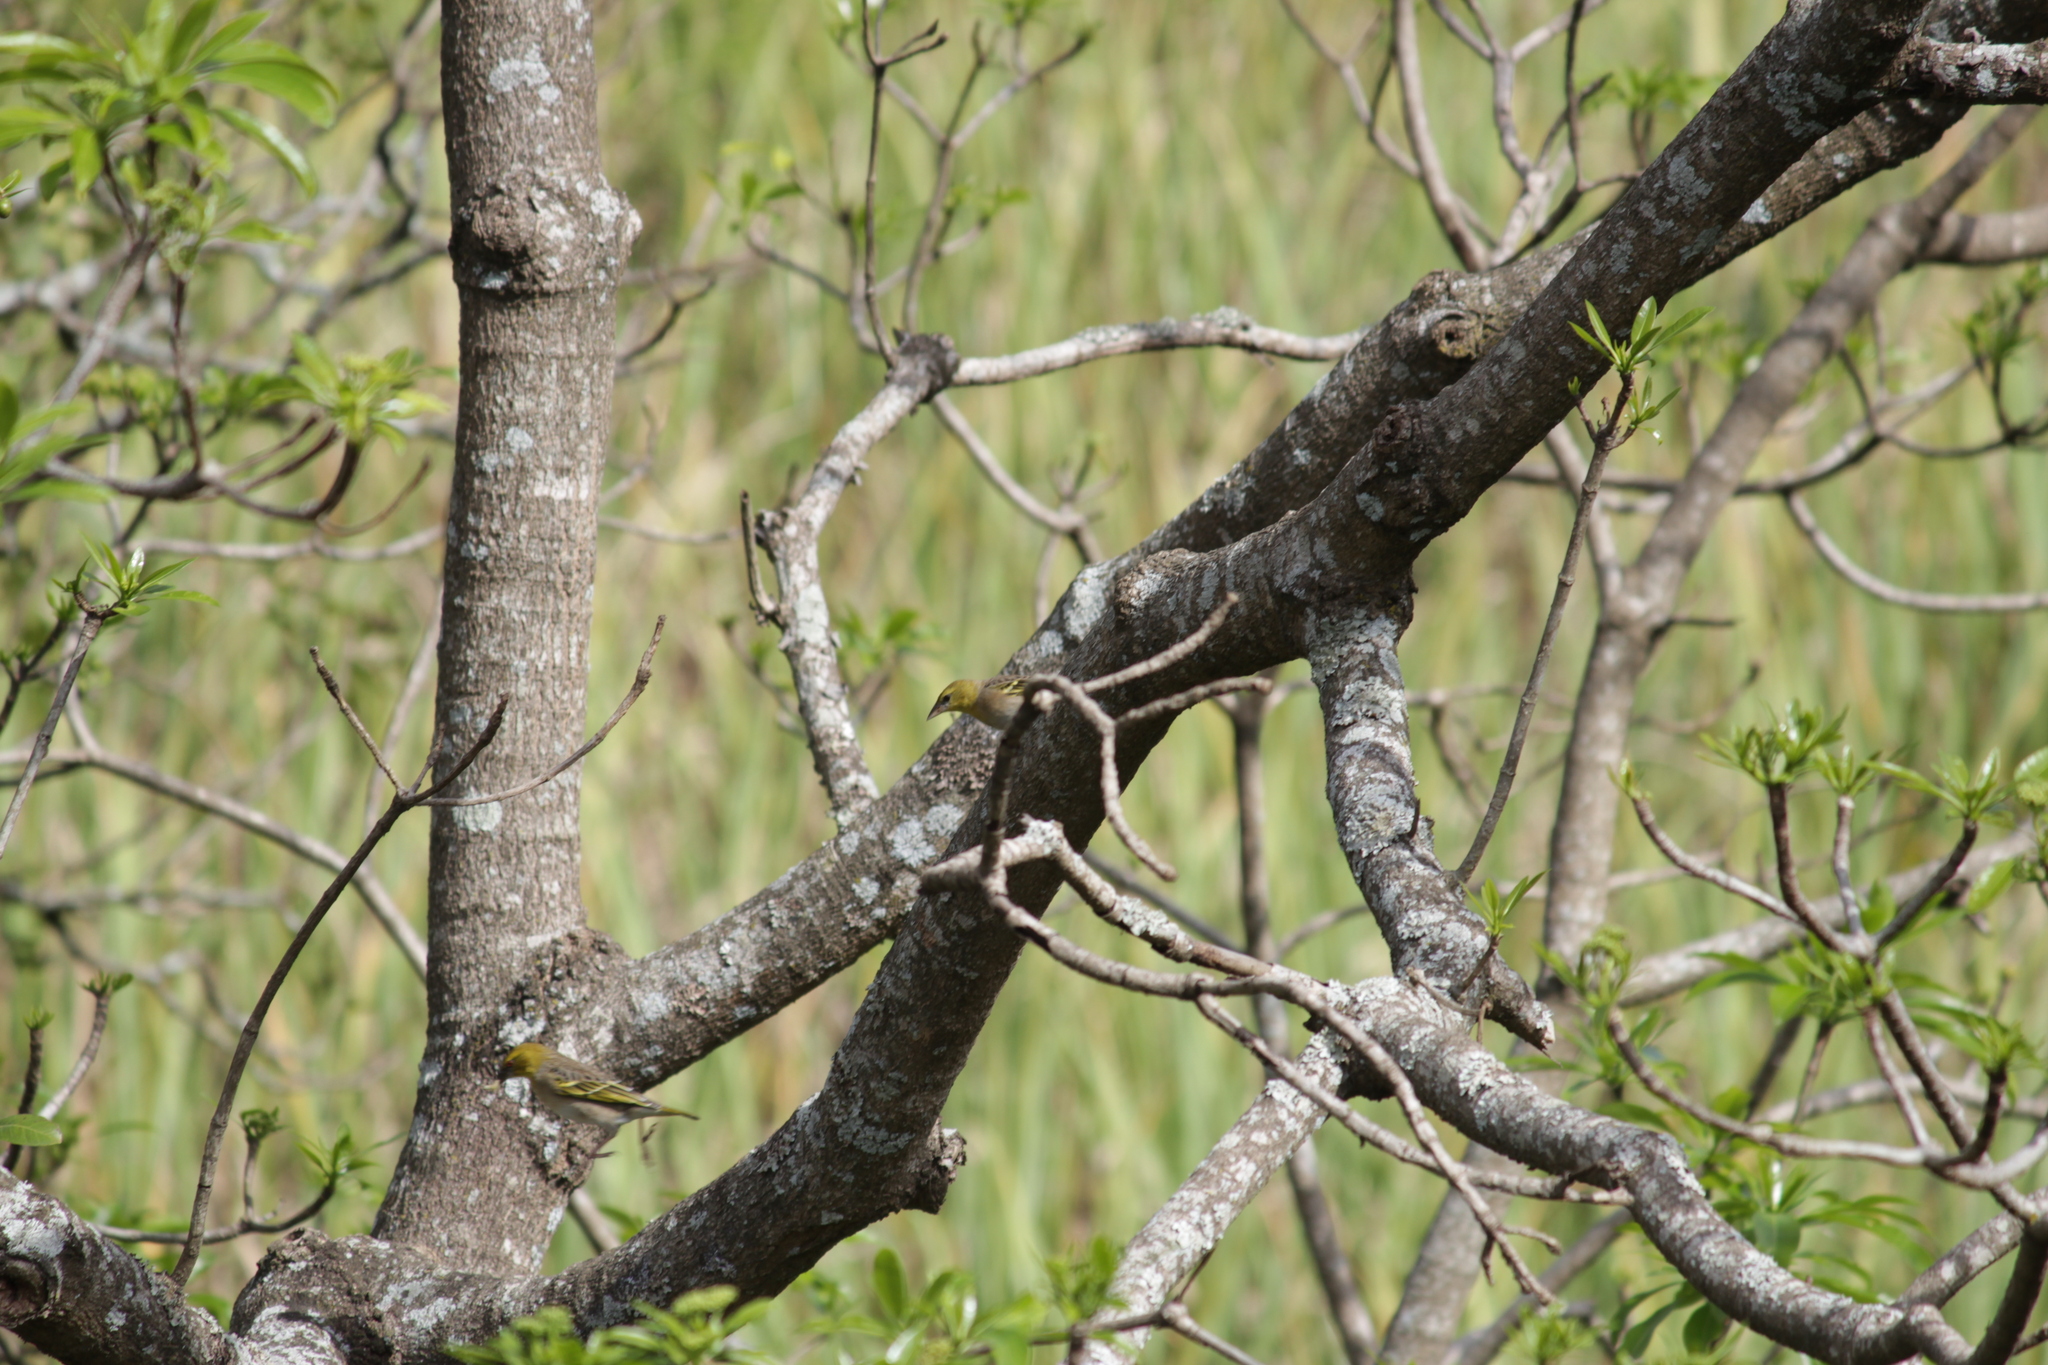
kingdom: Animalia
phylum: Chordata
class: Aves
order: Passeriformes
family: Ploceidae
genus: Ploceus
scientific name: Ploceus cucullatus
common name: Village weaver
